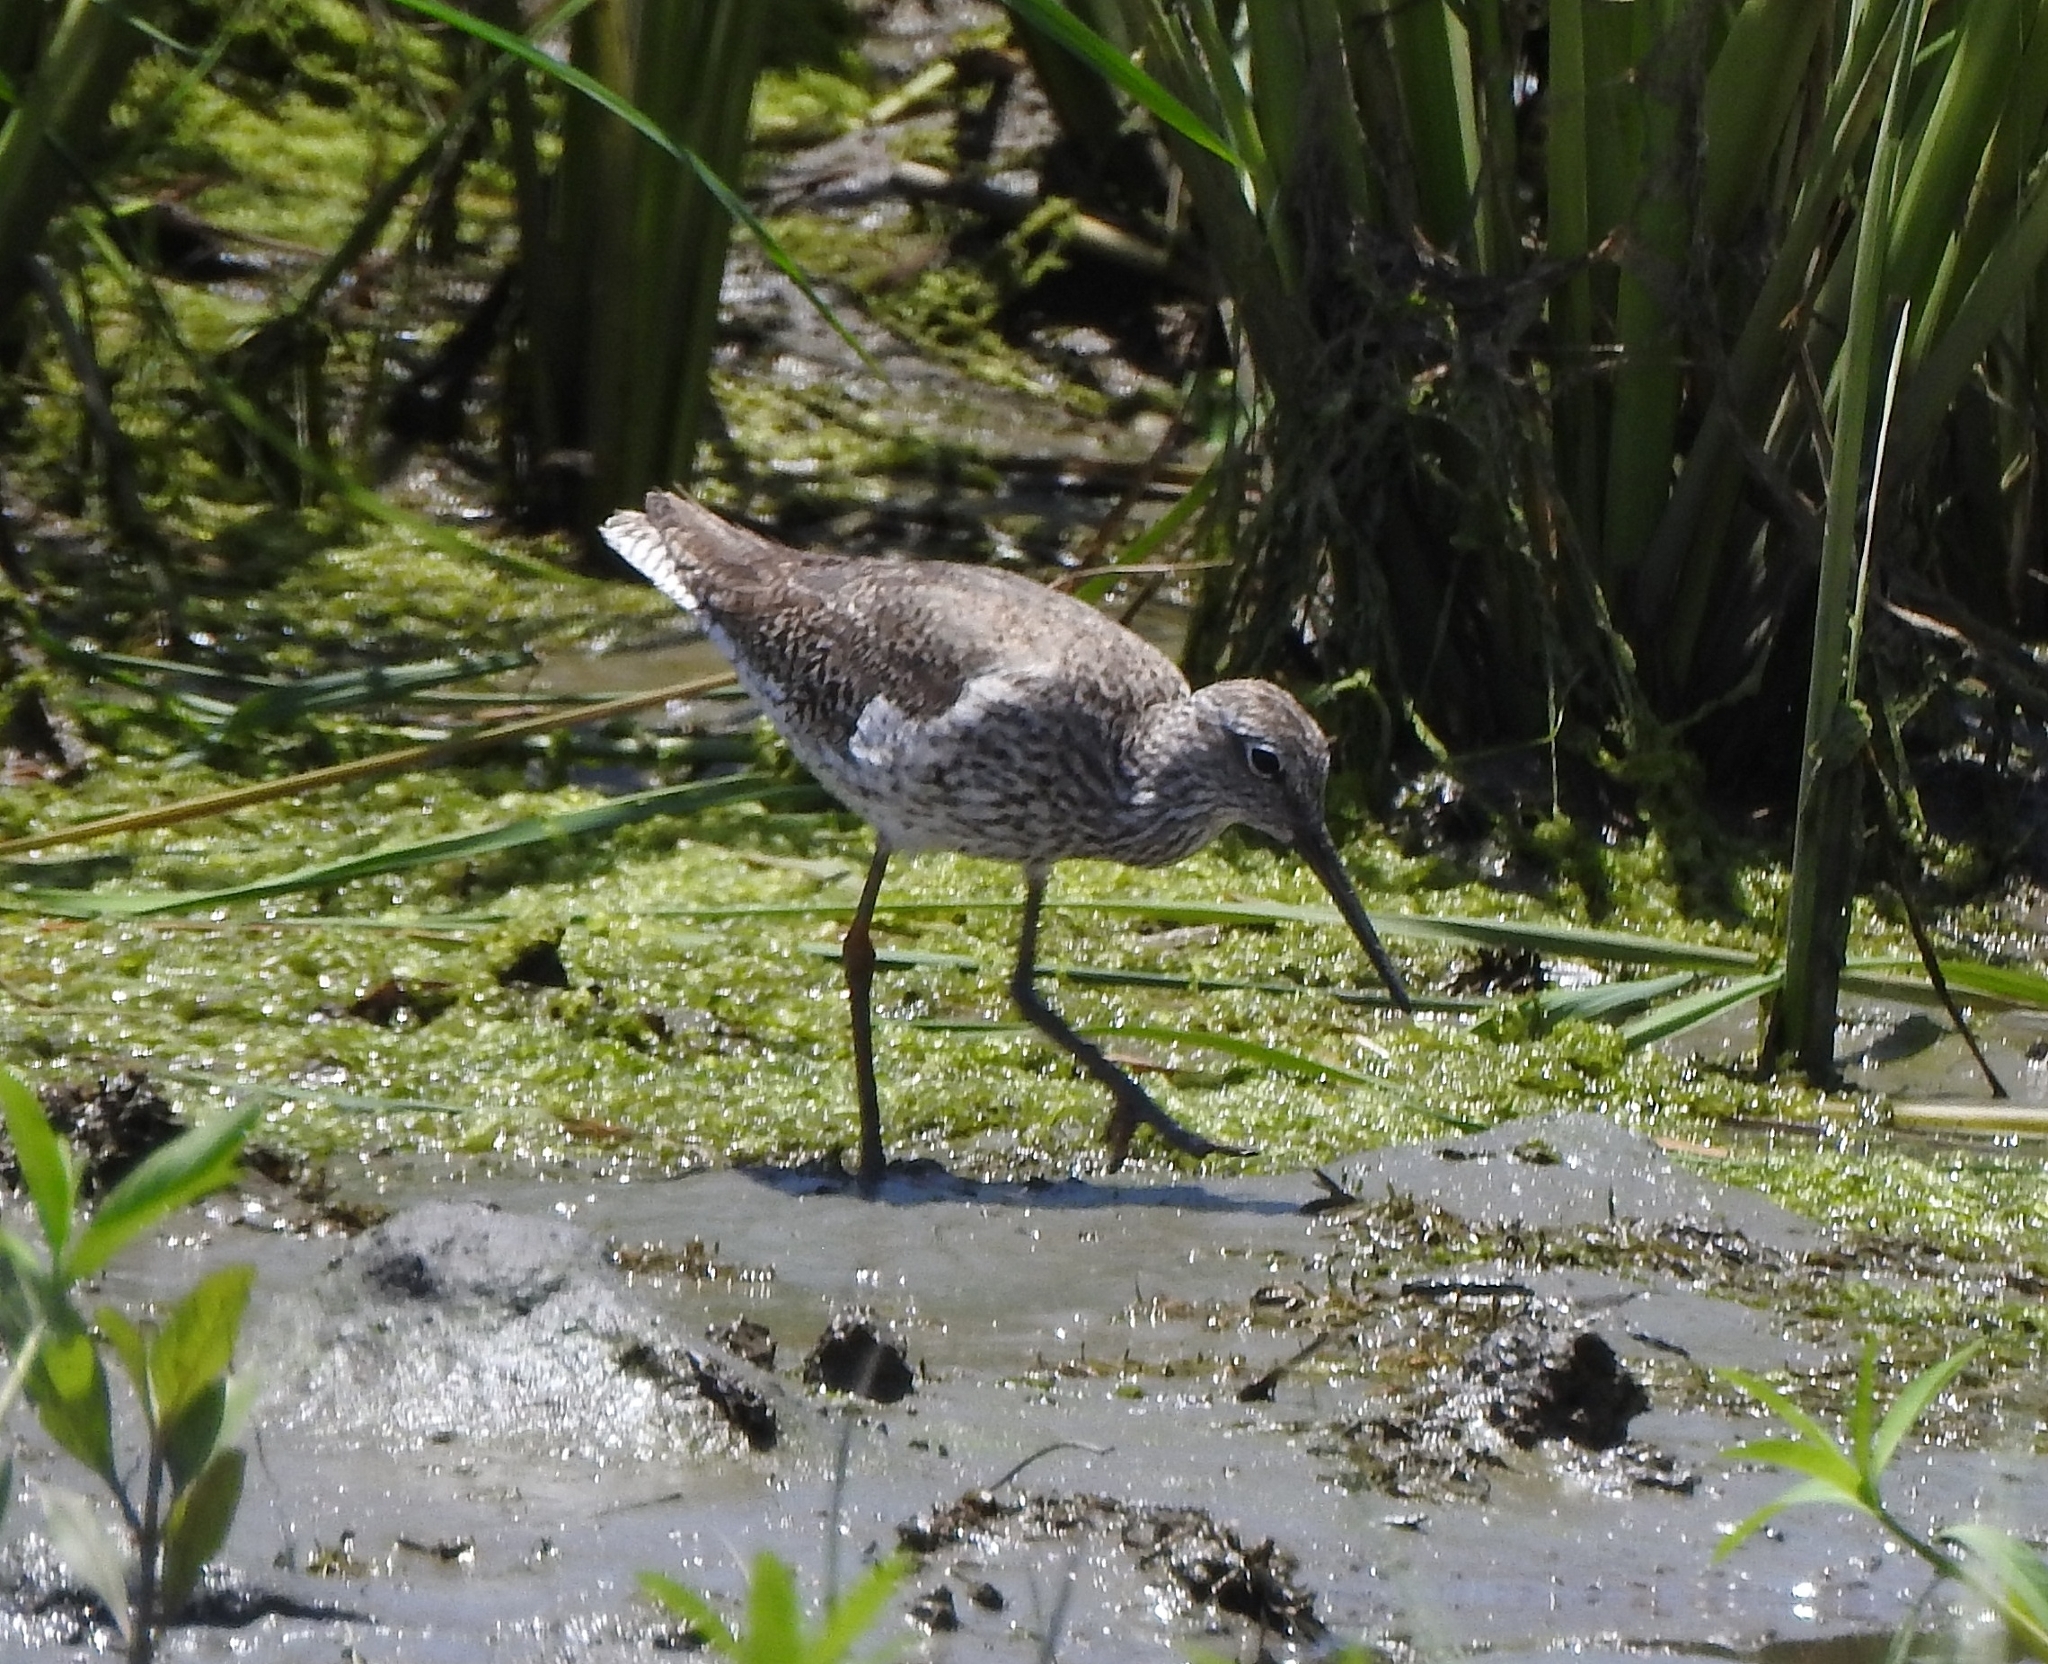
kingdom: Animalia
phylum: Chordata
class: Aves
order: Charadriiformes
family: Scolopacidae
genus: Tringa
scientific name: Tringa totanus
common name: Common redshank
